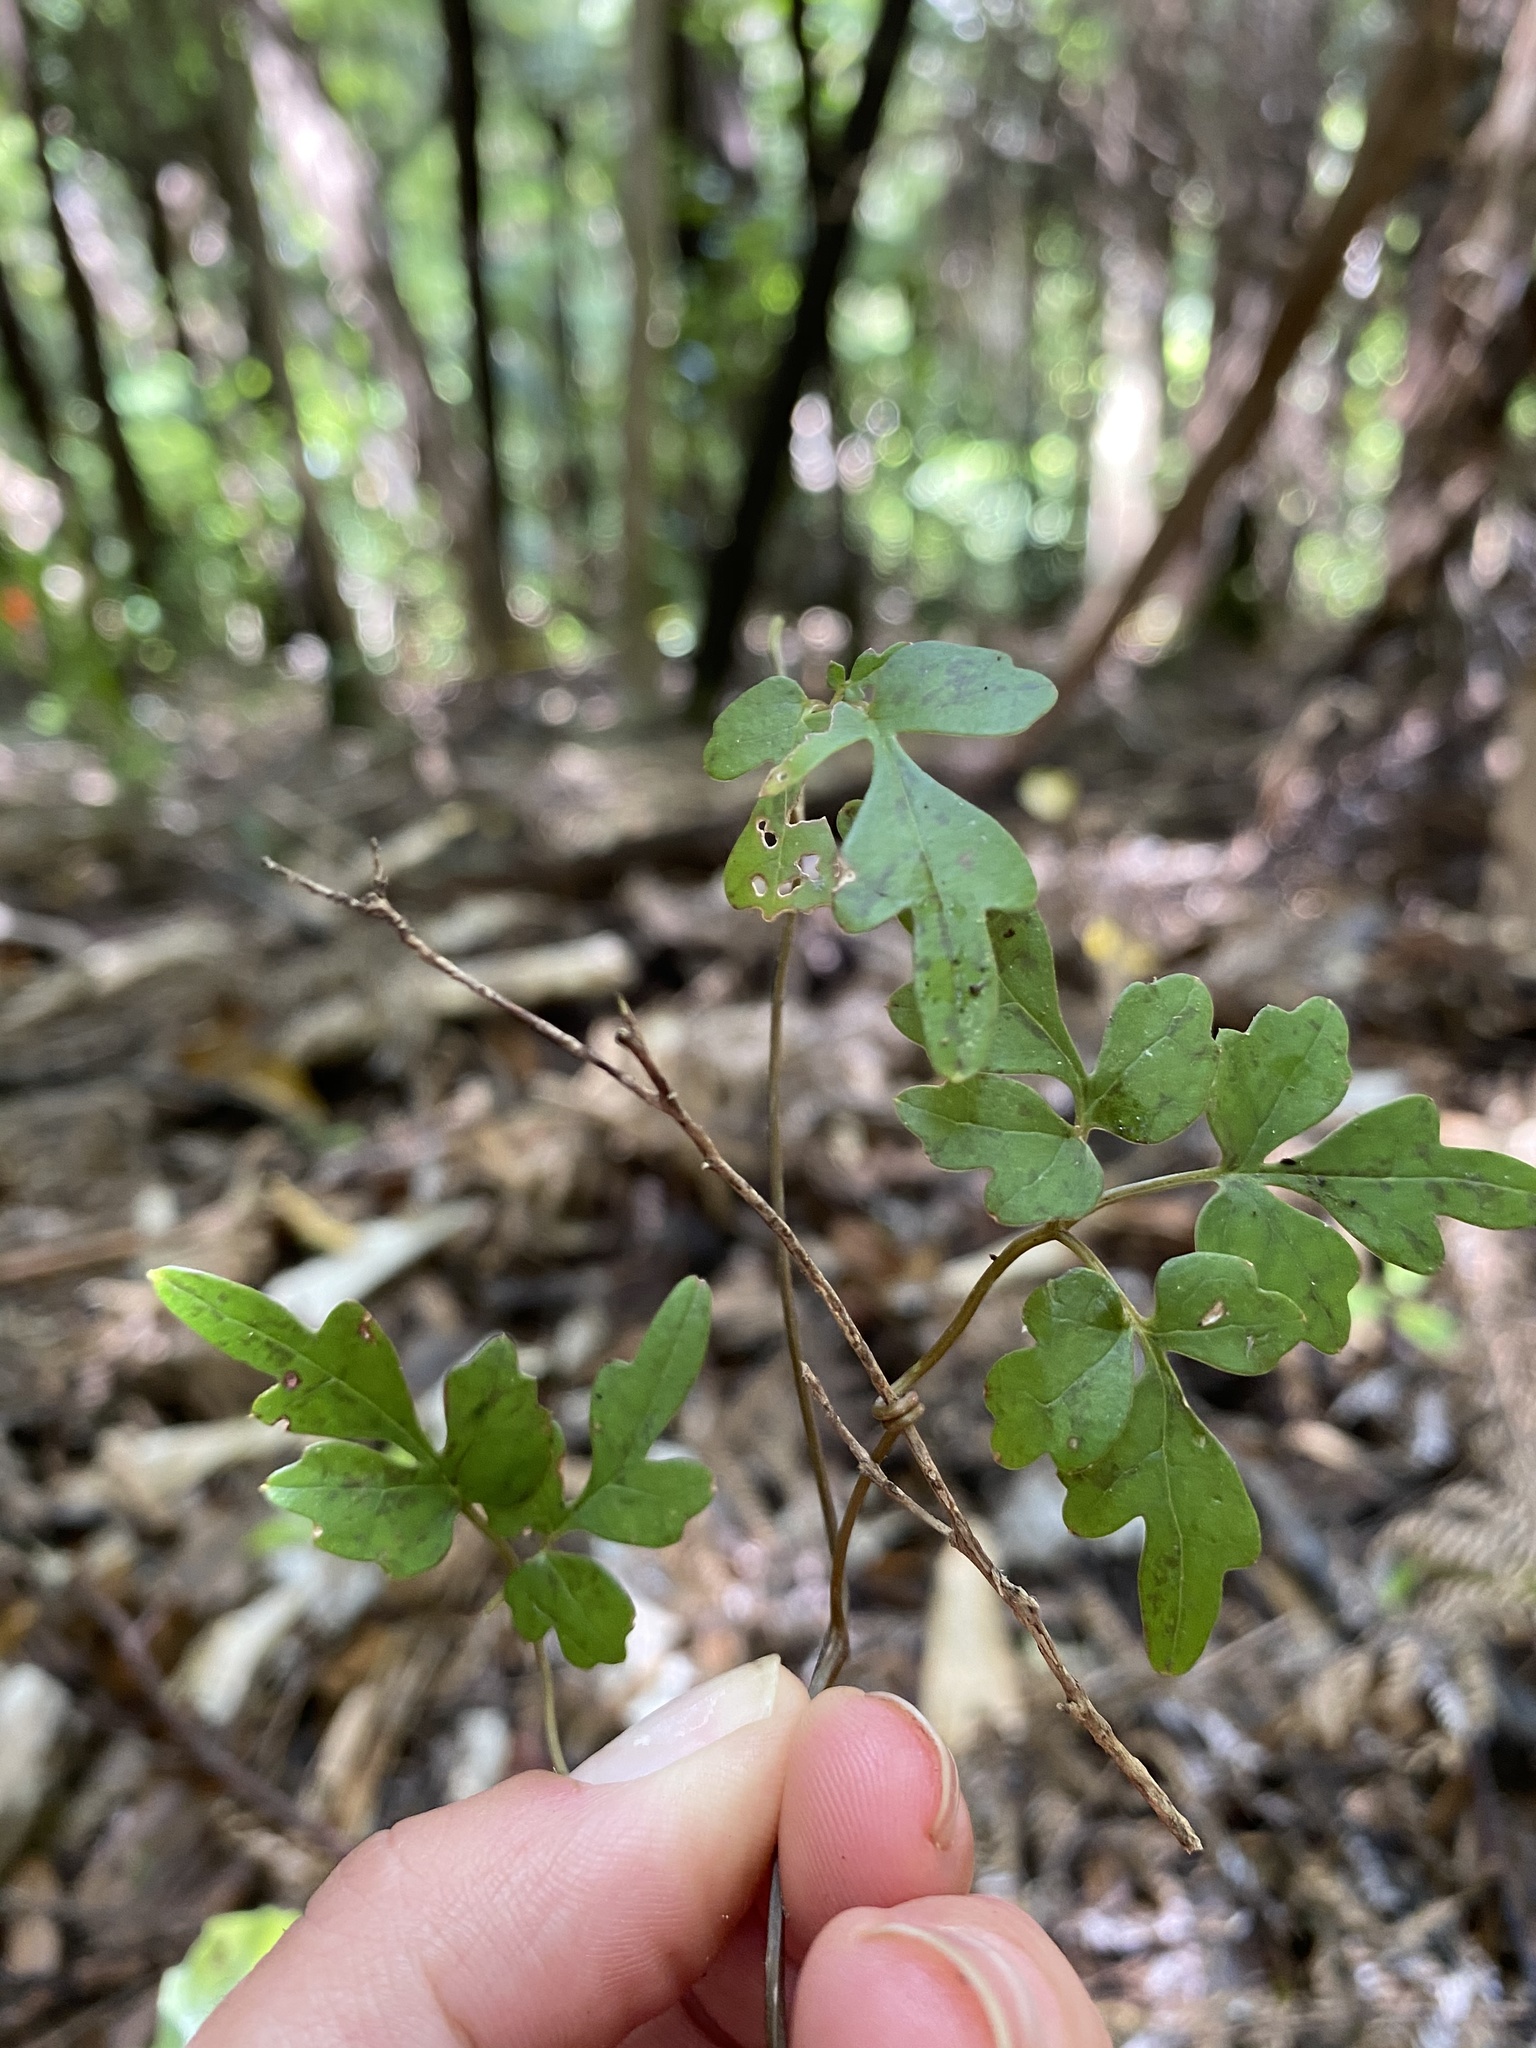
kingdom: Plantae
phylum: Tracheophyta
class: Magnoliopsida
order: Ranunculales
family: Ranunculaceae
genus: Clematis
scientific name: Clematis forsteri
